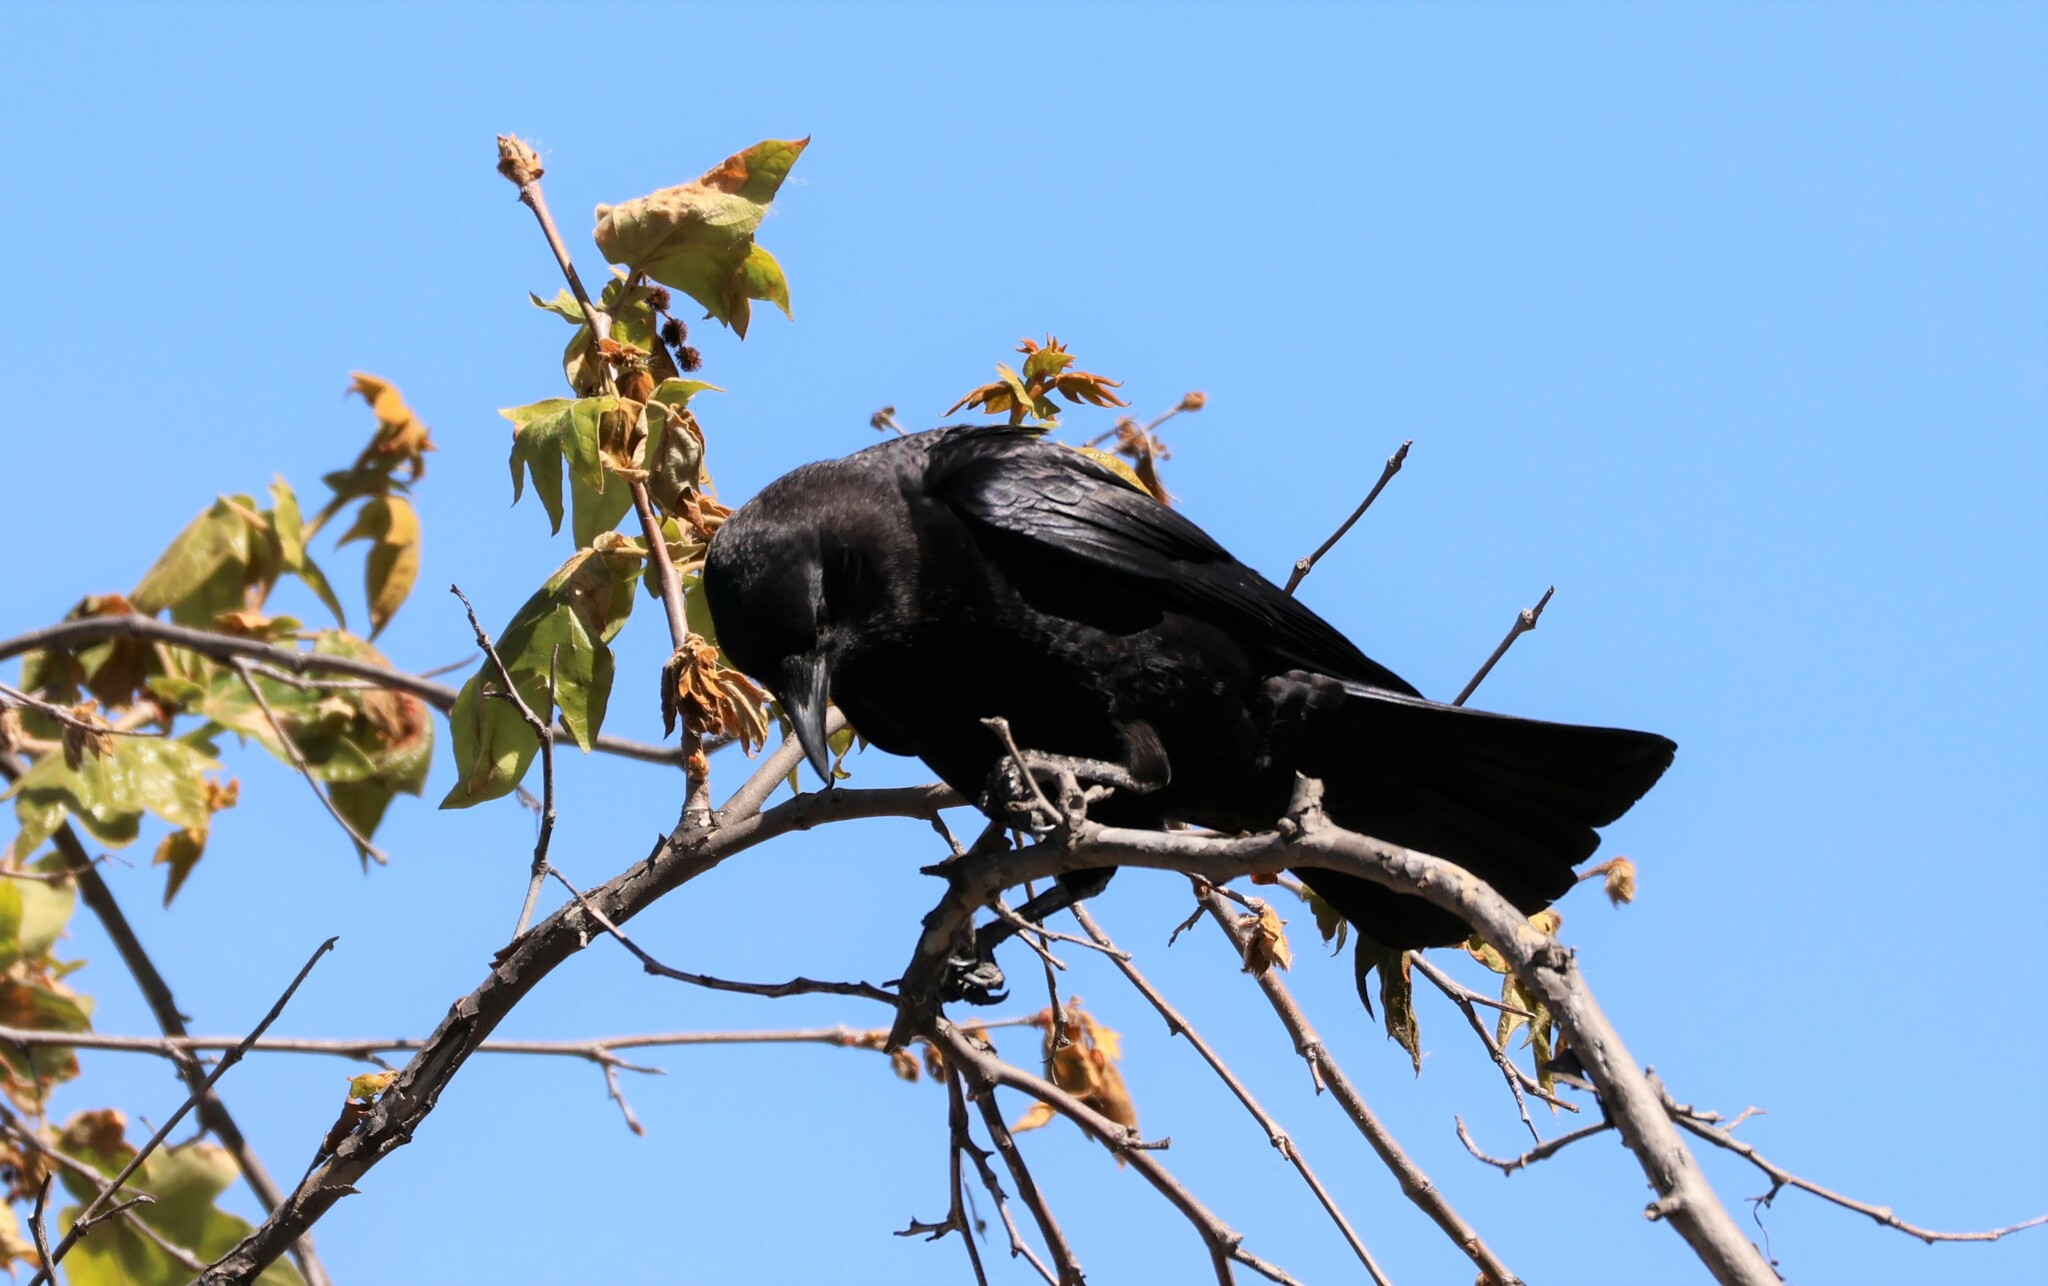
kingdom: Animalia
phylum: Chordata
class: Aves
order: Passeriformes
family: Corvidae
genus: Corvus
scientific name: Corvus brachyrhynchos
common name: American crow
